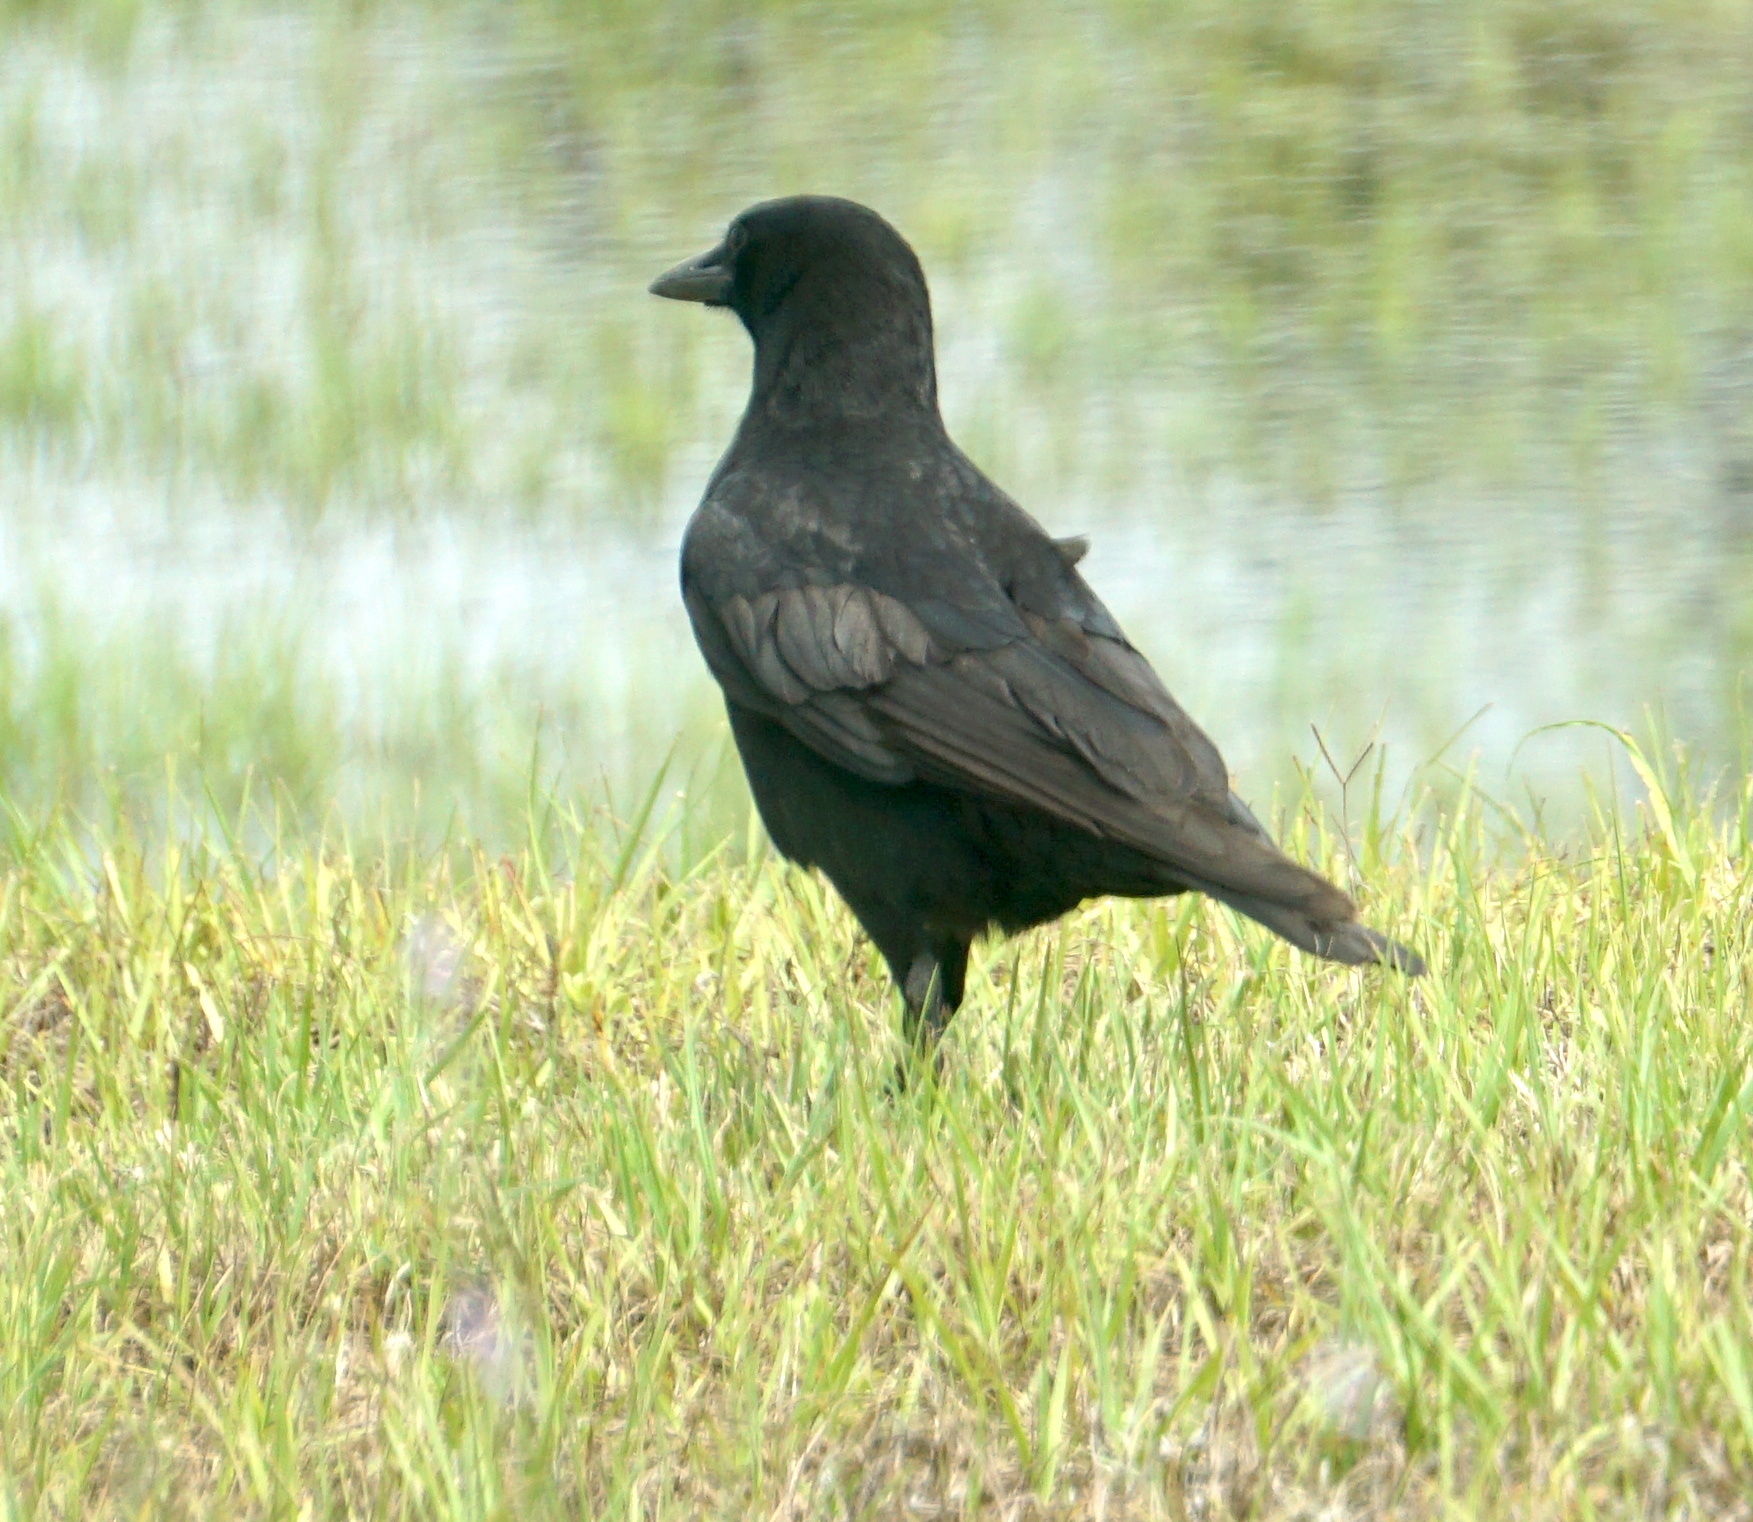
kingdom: Animalia
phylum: Chordata
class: Aves
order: Passeriformes
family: Corvidae
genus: Corvus
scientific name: Corvus
